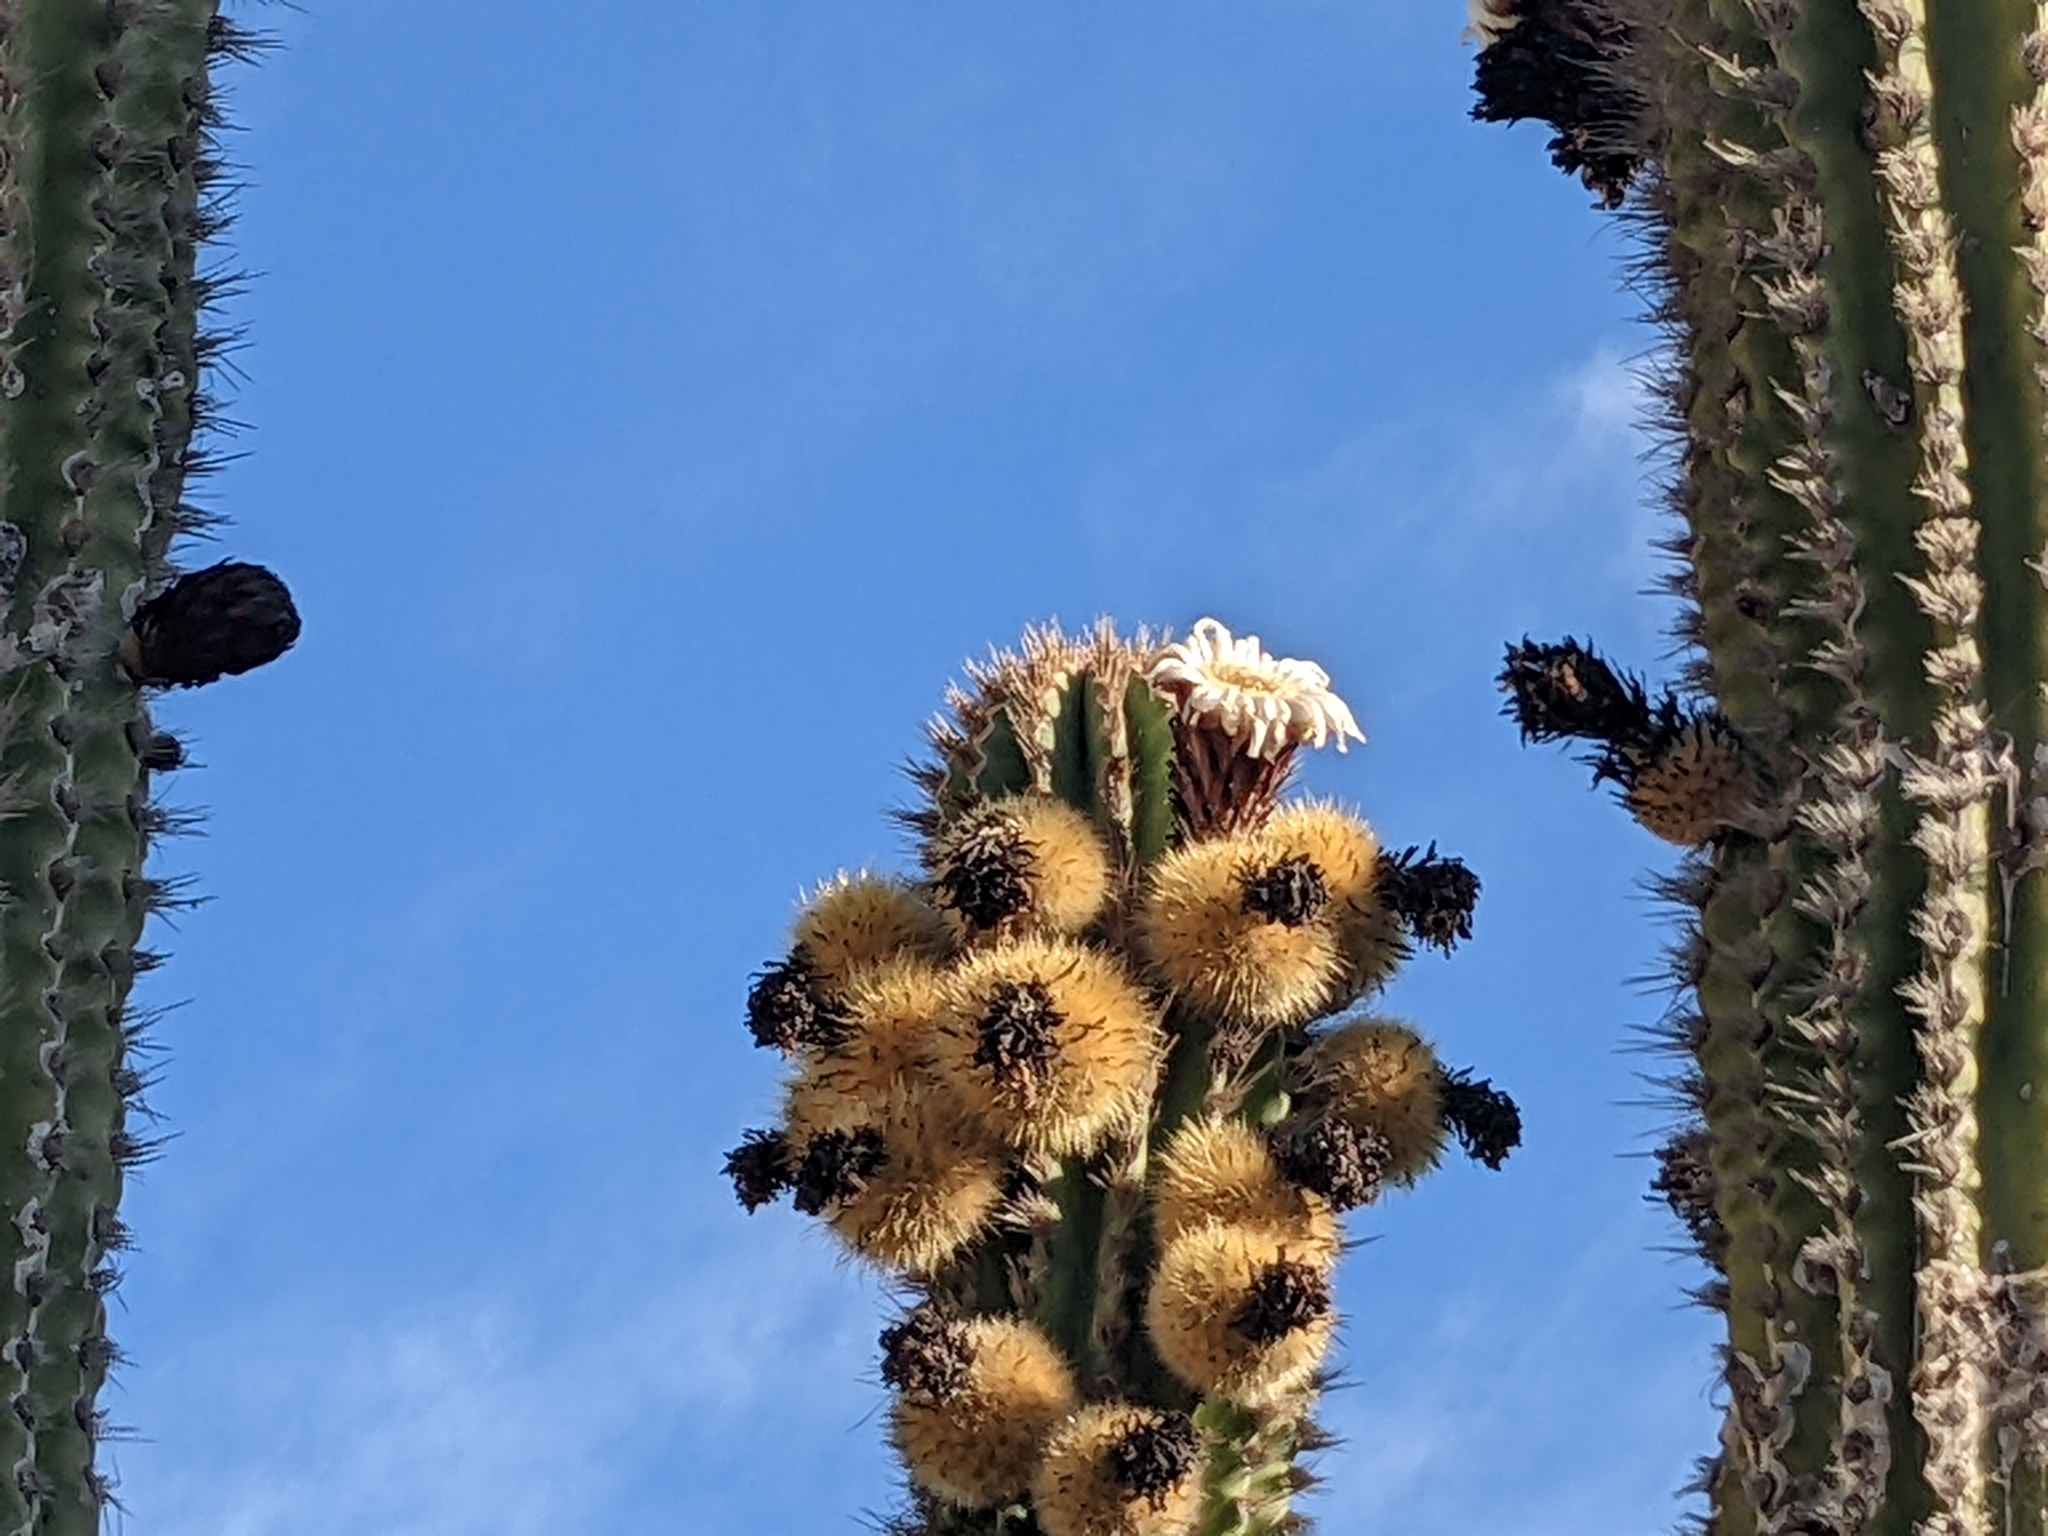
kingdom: Plantae
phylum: Tracheophyta
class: Magnoliopsida
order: Caryophyllales
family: Cactaceae
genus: Pachycereus
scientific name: Pachycereus pecten-aboriginum
